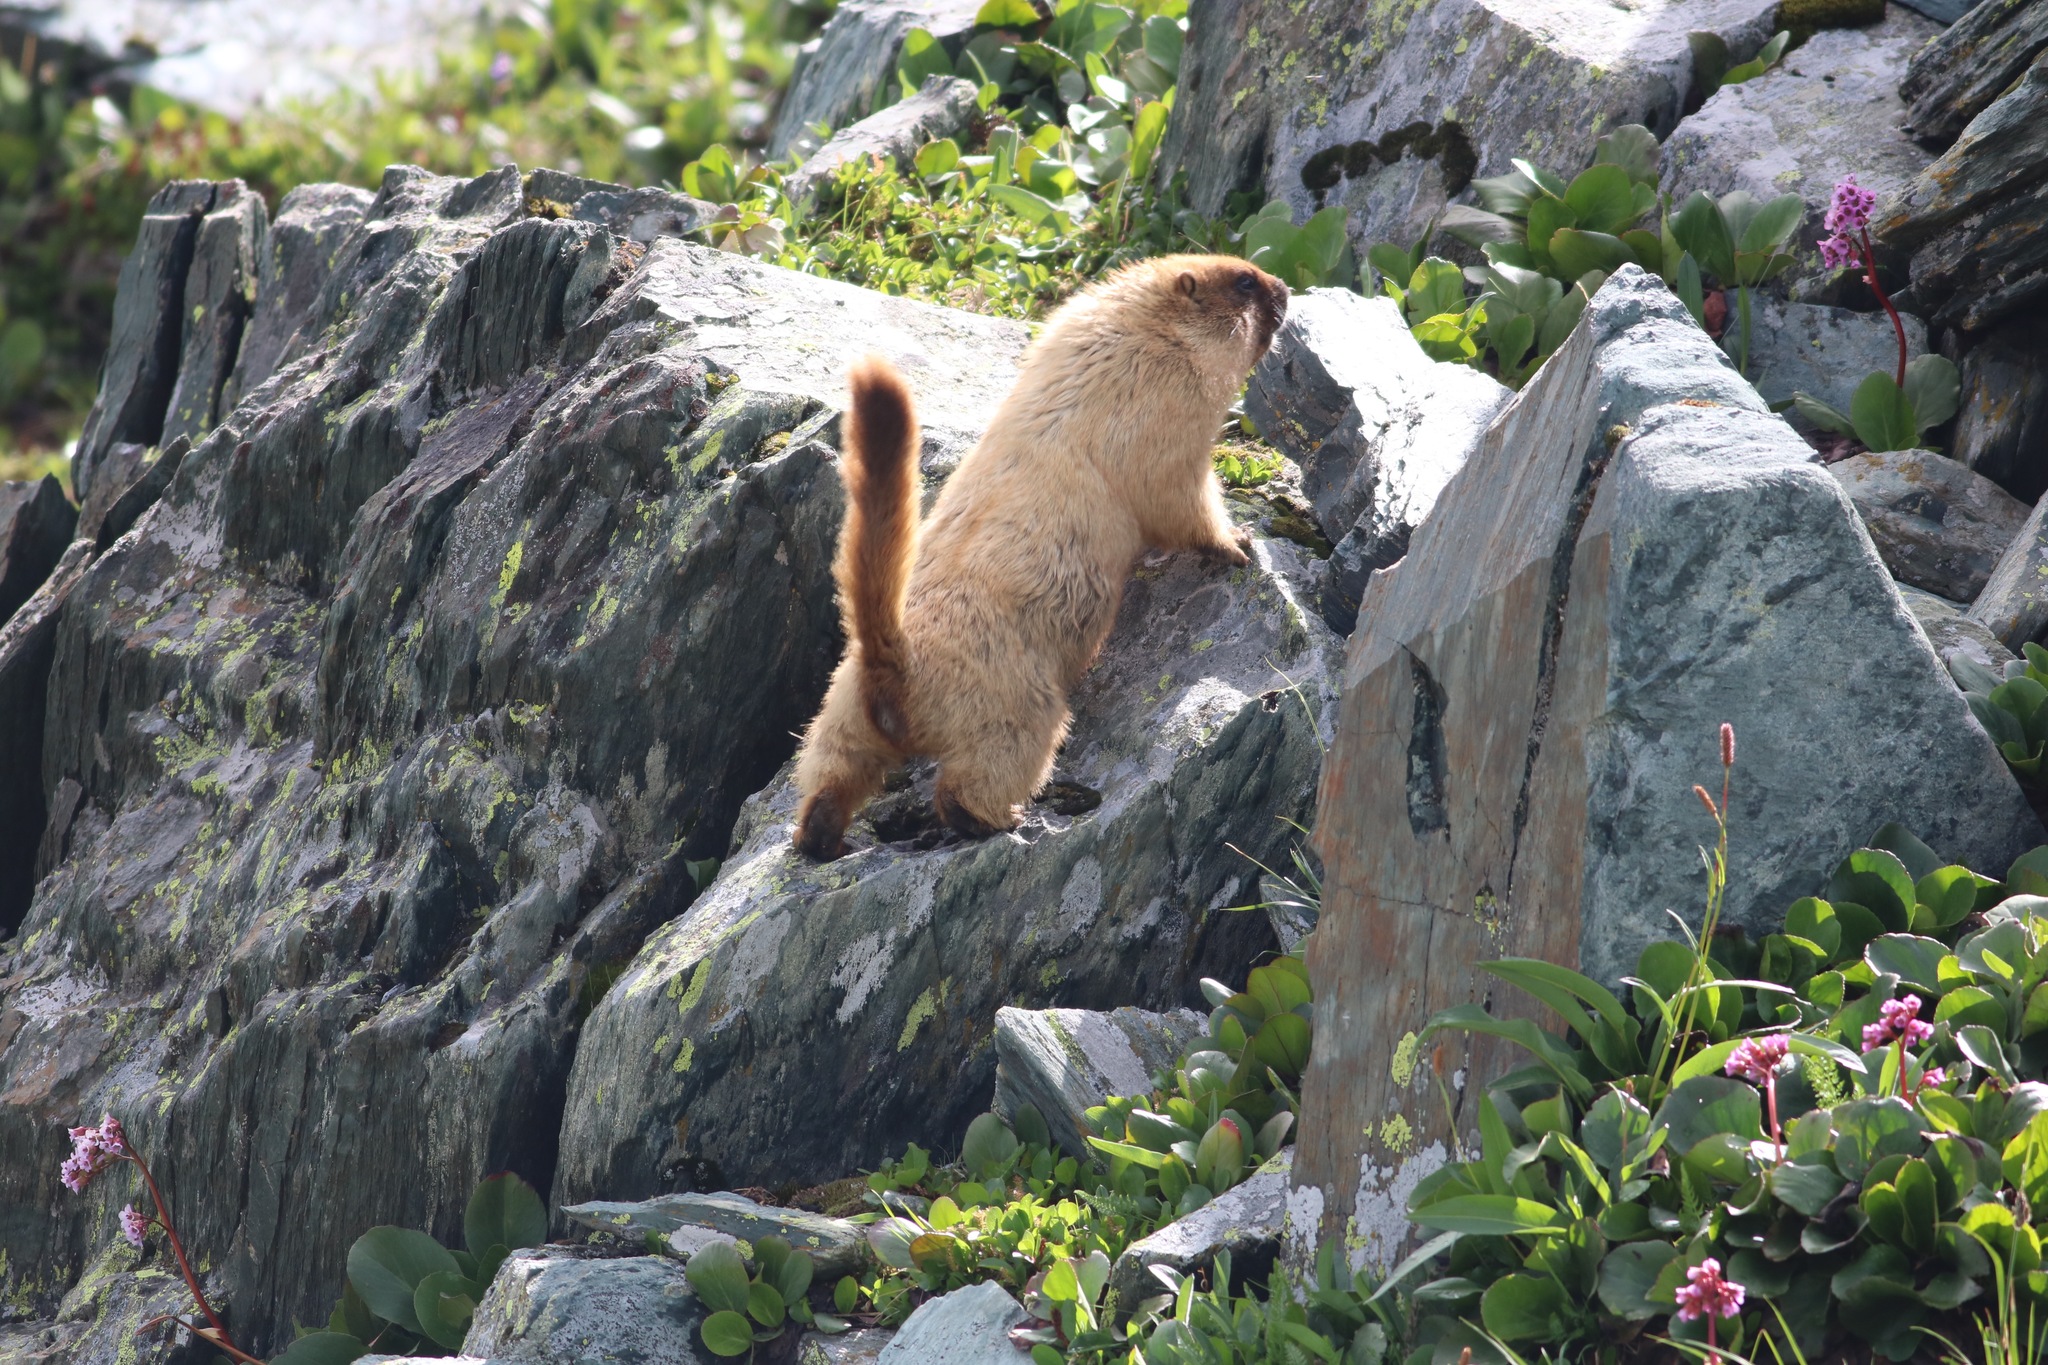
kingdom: Animalia
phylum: Chordata
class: Mammalia
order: Rodentia
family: Sciuridae
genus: Marmota
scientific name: Marmota baibacina
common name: Gray marmot
